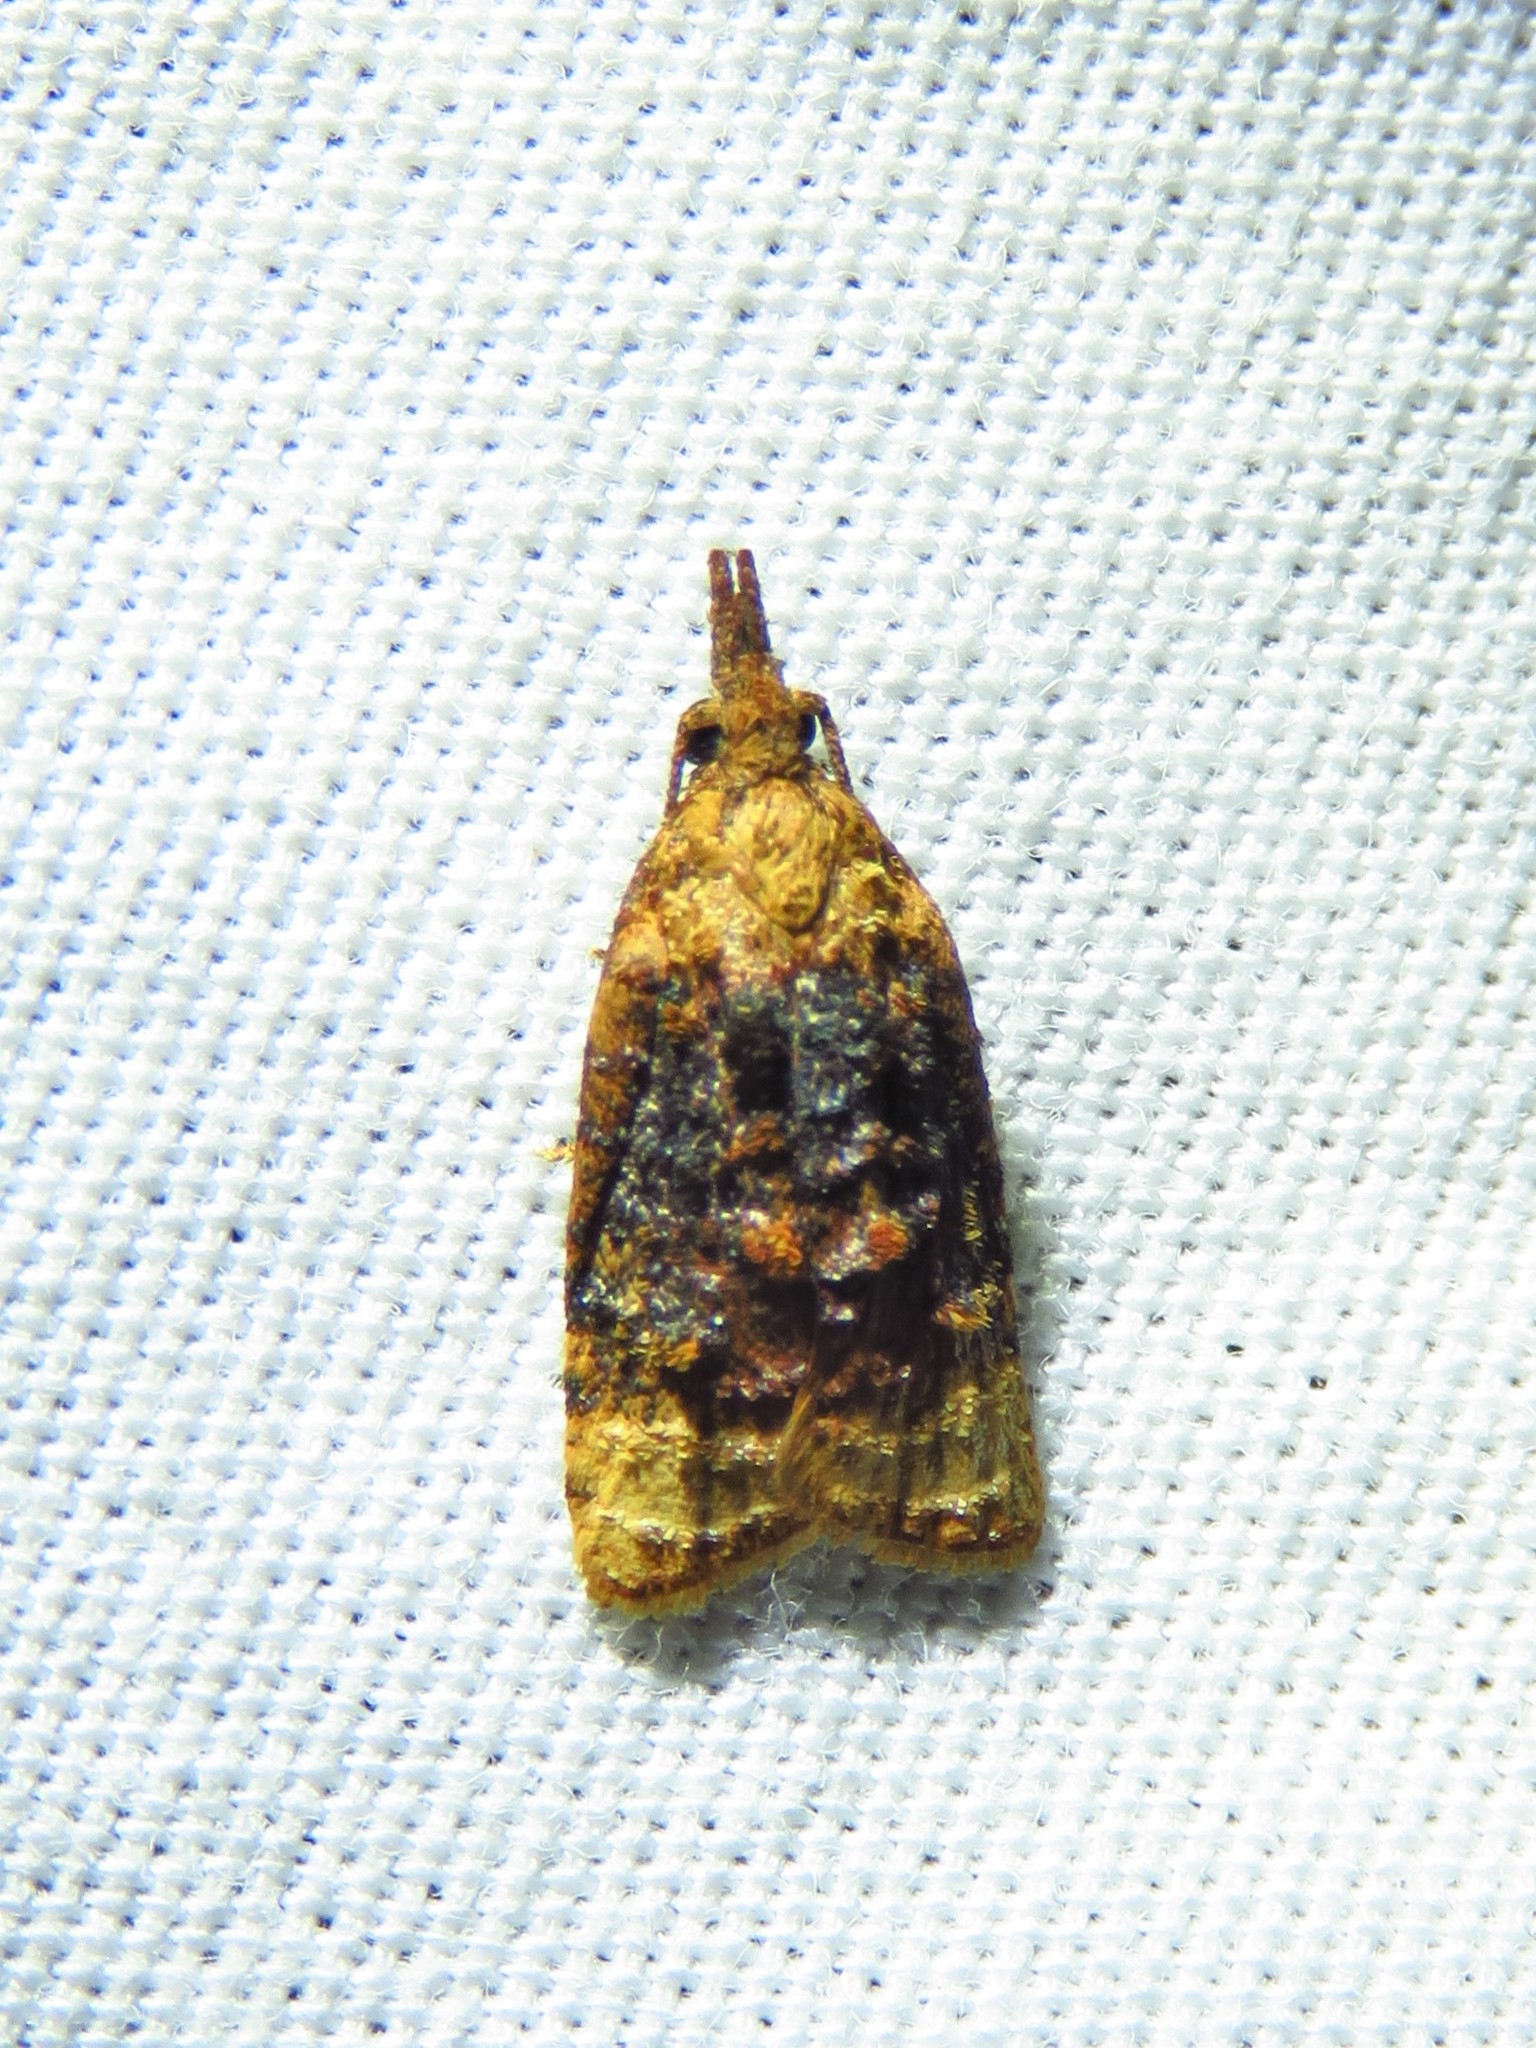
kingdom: Animalia
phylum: Arthropoda
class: Insecta
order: Lepidoptera
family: Tortricidae
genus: Platynota
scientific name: Platynota flavedana
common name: Black-shaded platynota moth
